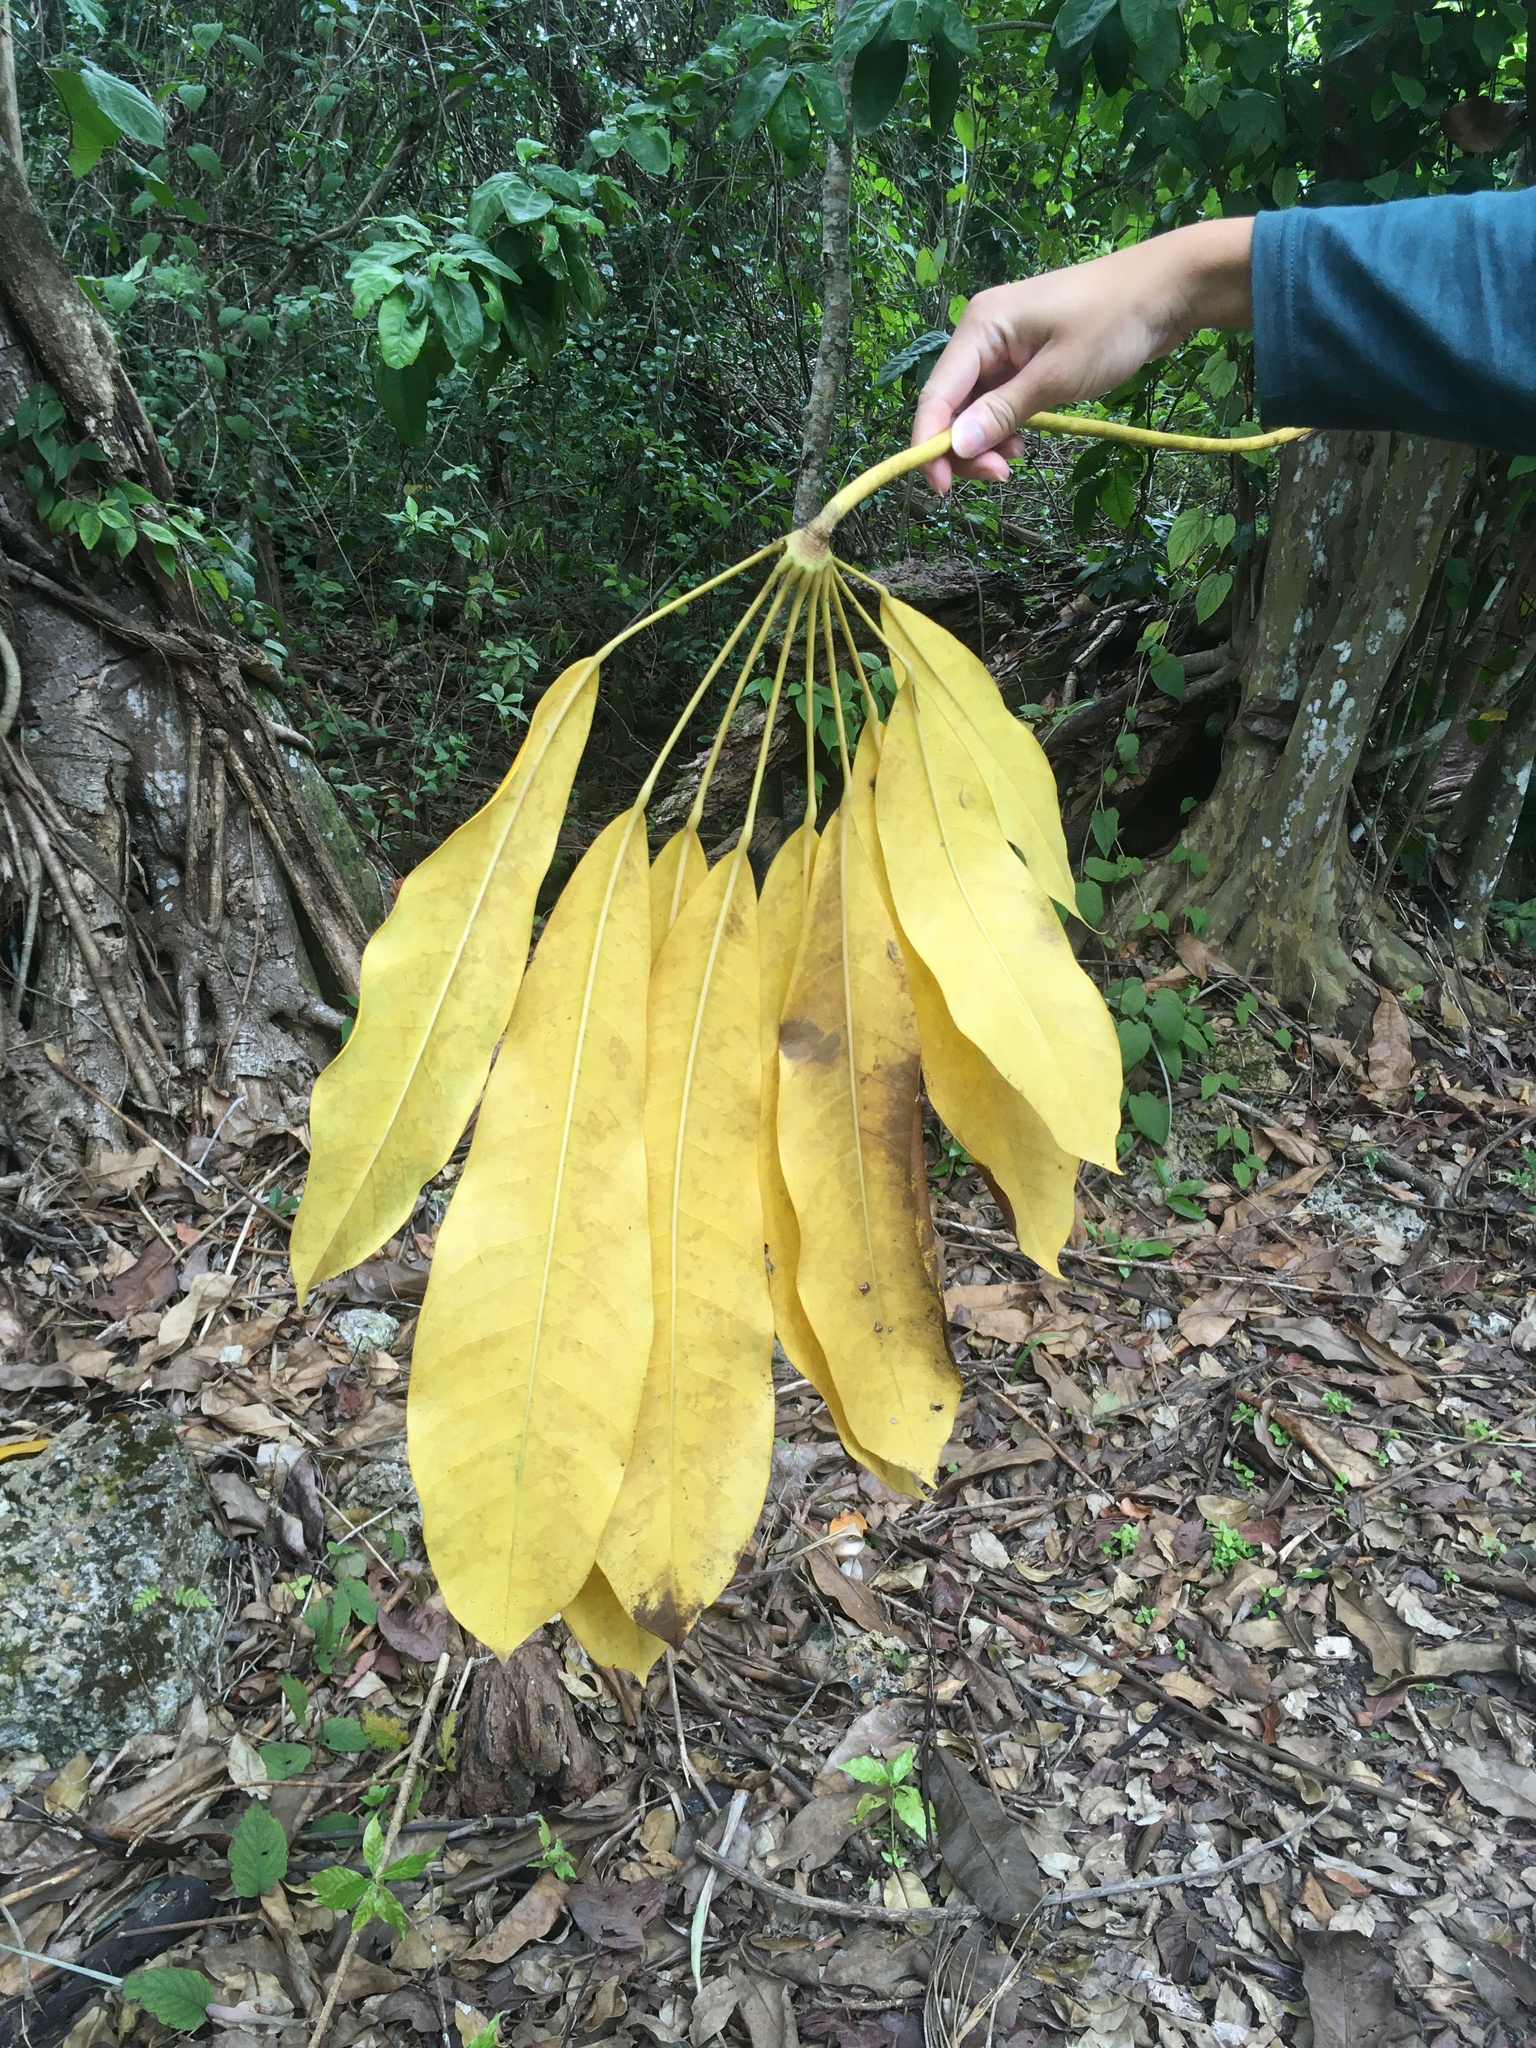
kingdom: Plantae
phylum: Tracheophyta
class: Magnoliopsida
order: Apiales
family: Araliaceae
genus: Heptapleurum
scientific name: Heptapleurum actinophyllum
